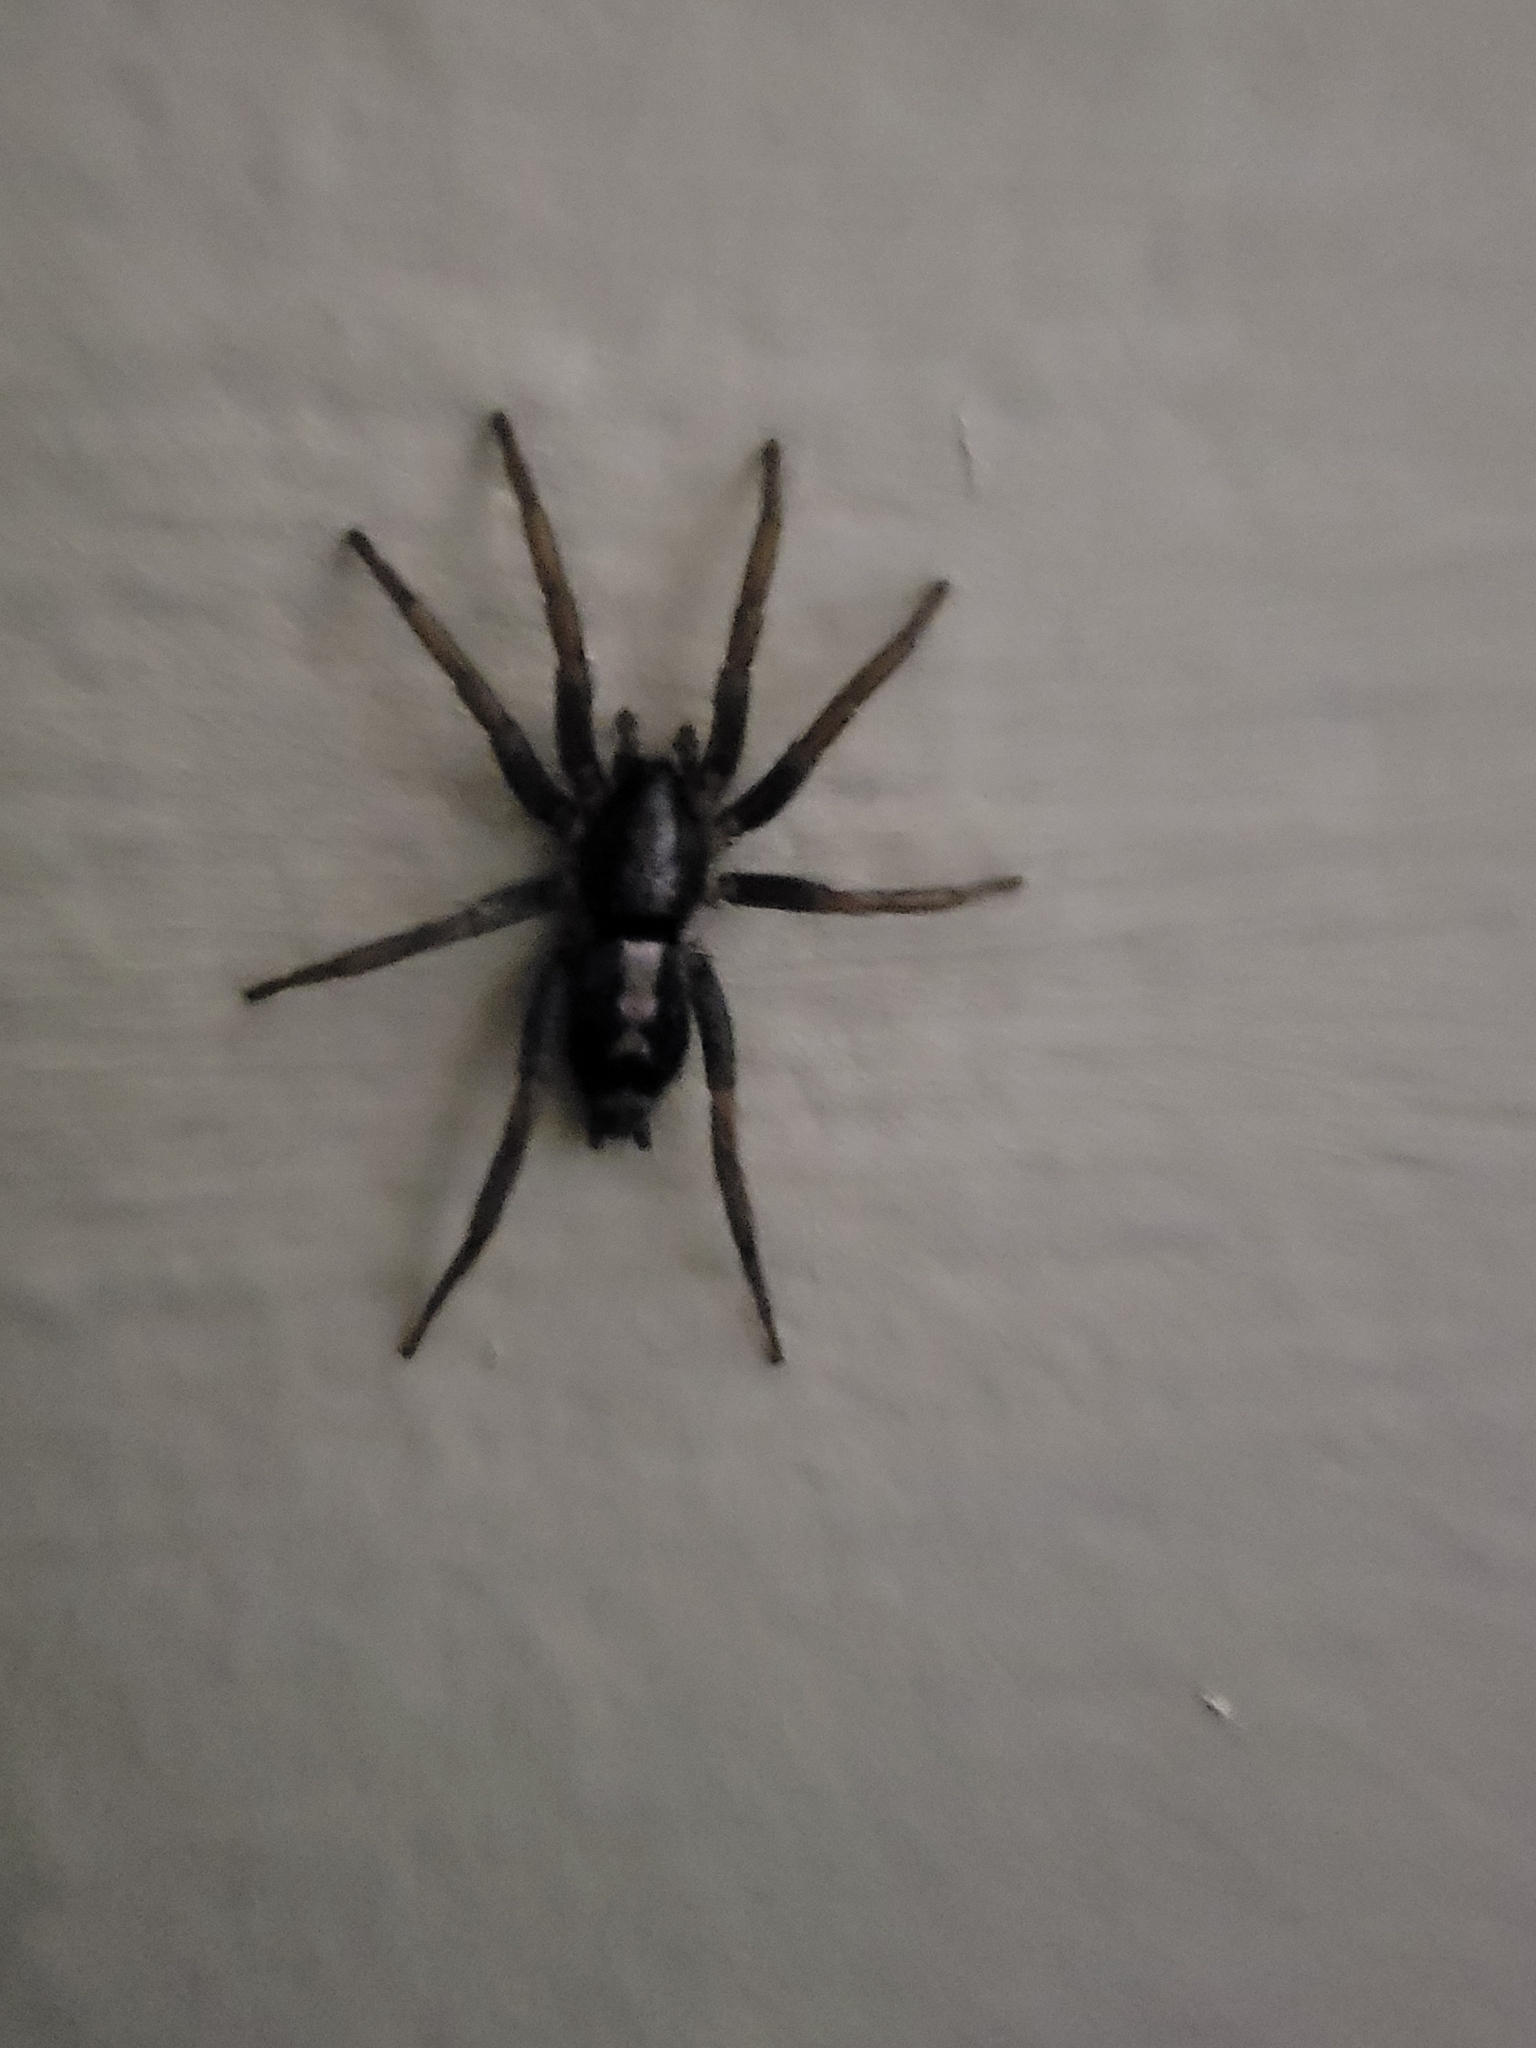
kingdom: Animalia
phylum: Arthropoda
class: Arachnida
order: Araneae
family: Gnaphosidae
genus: Herpyllus
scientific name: Herpyllus ecclesiasticus
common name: Eastern parson spider
